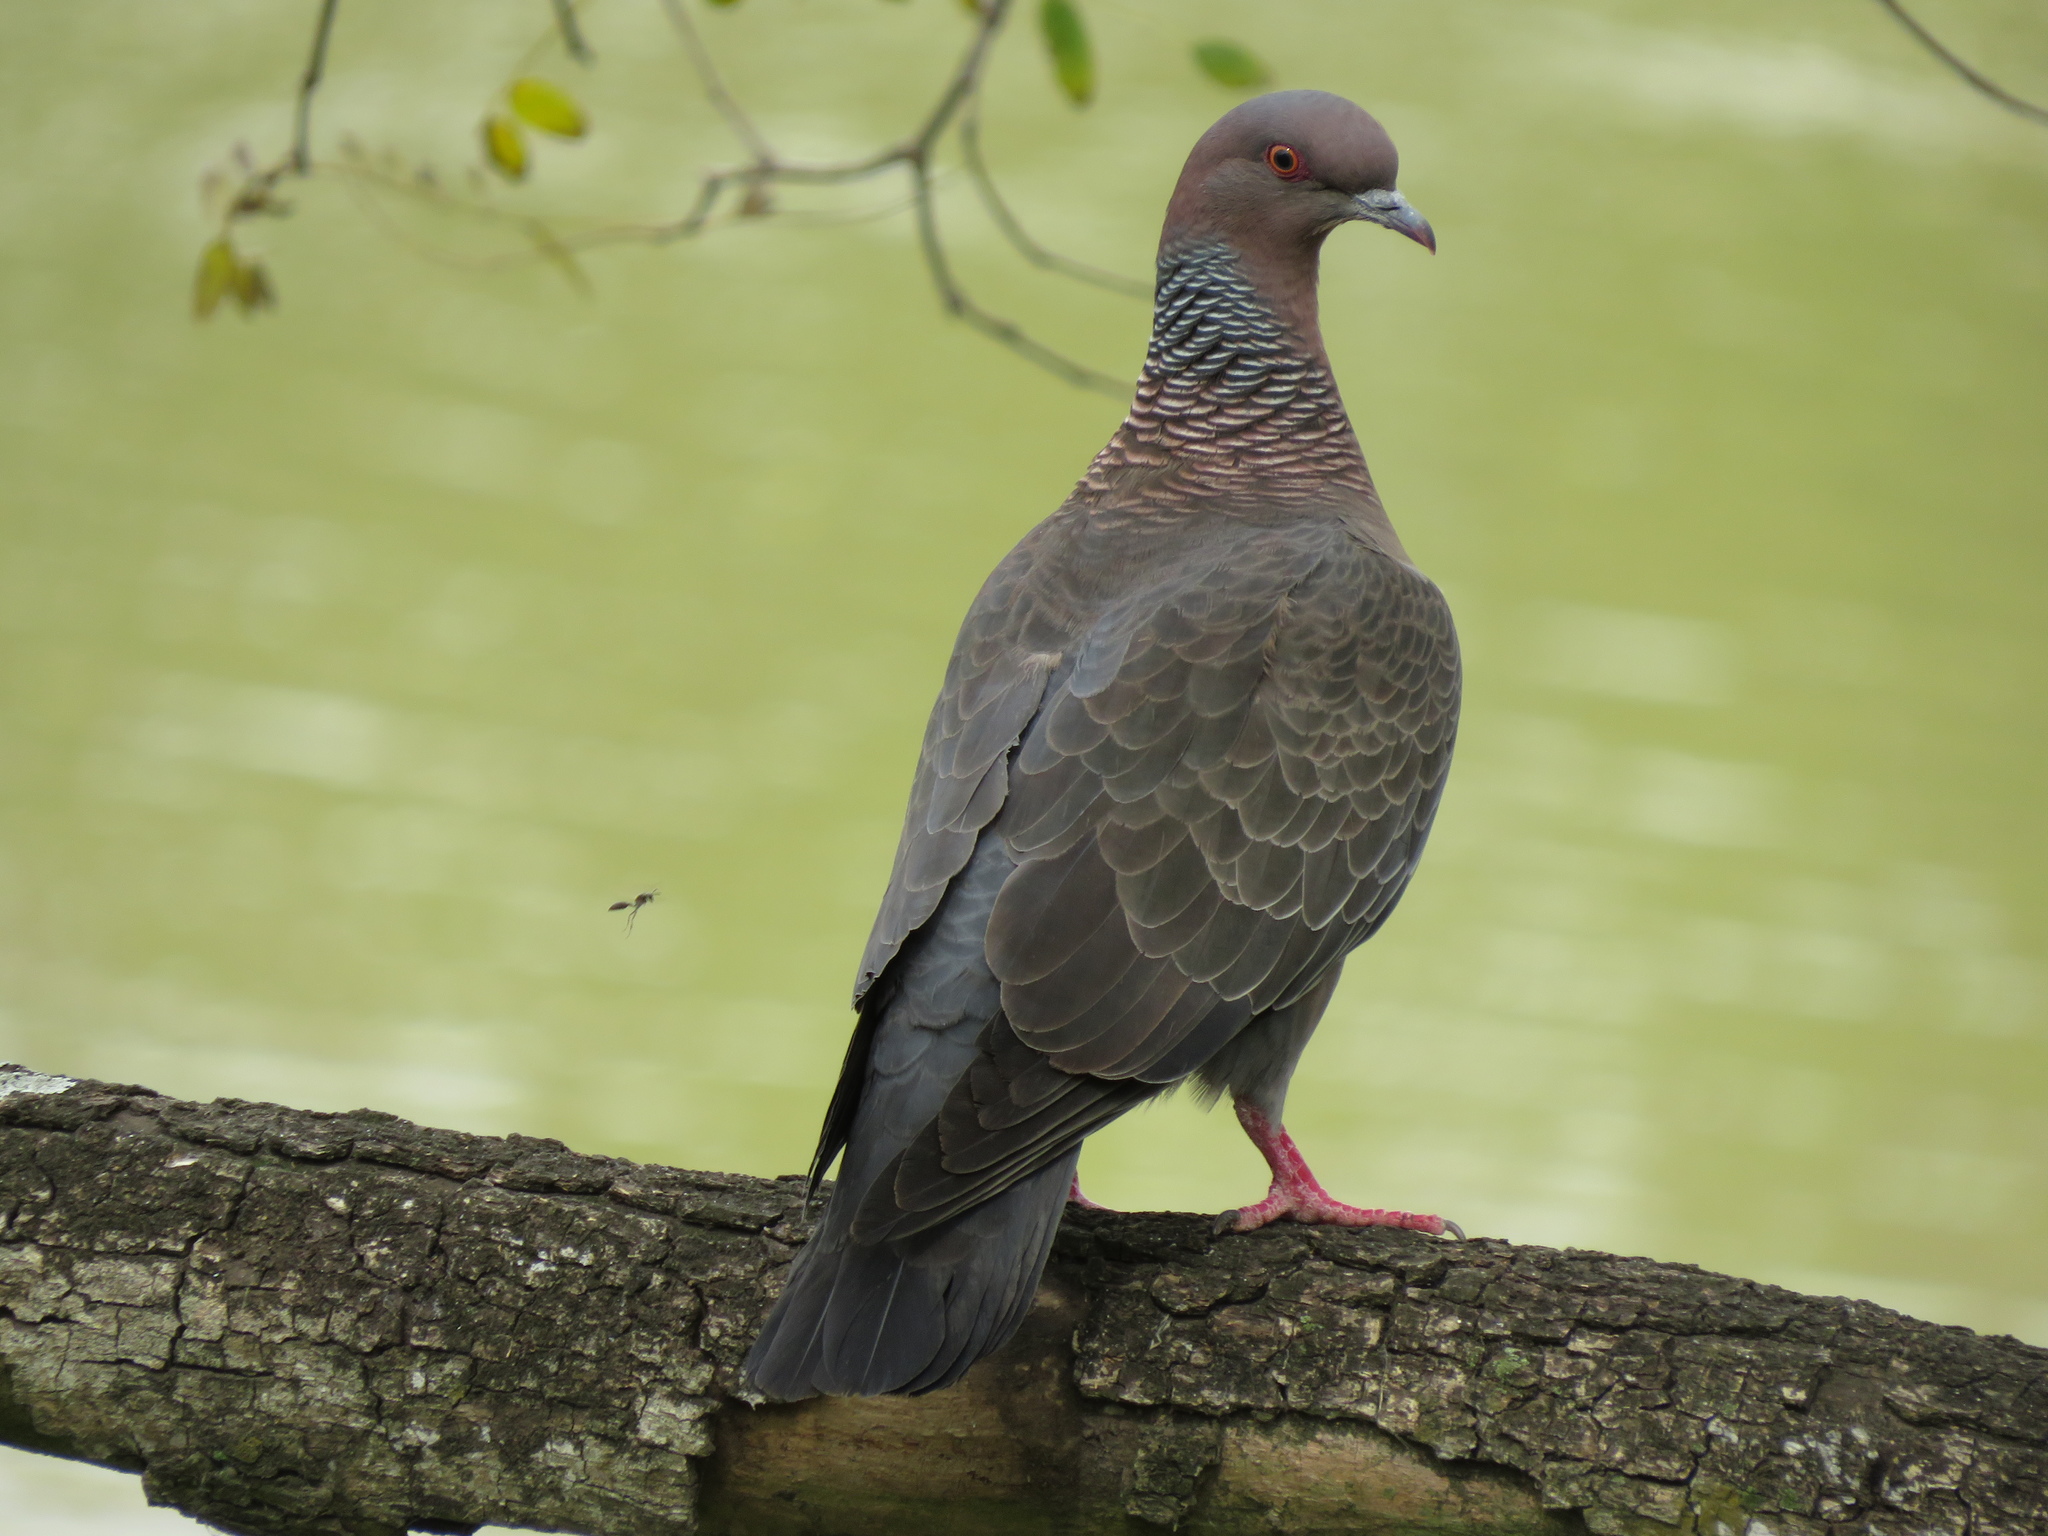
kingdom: Animalia
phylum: Chordata
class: Aves
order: Columbiformes
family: Columbidae
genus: Patagioenas
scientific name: Patagioenas picazuro
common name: Picazuro pigeon
